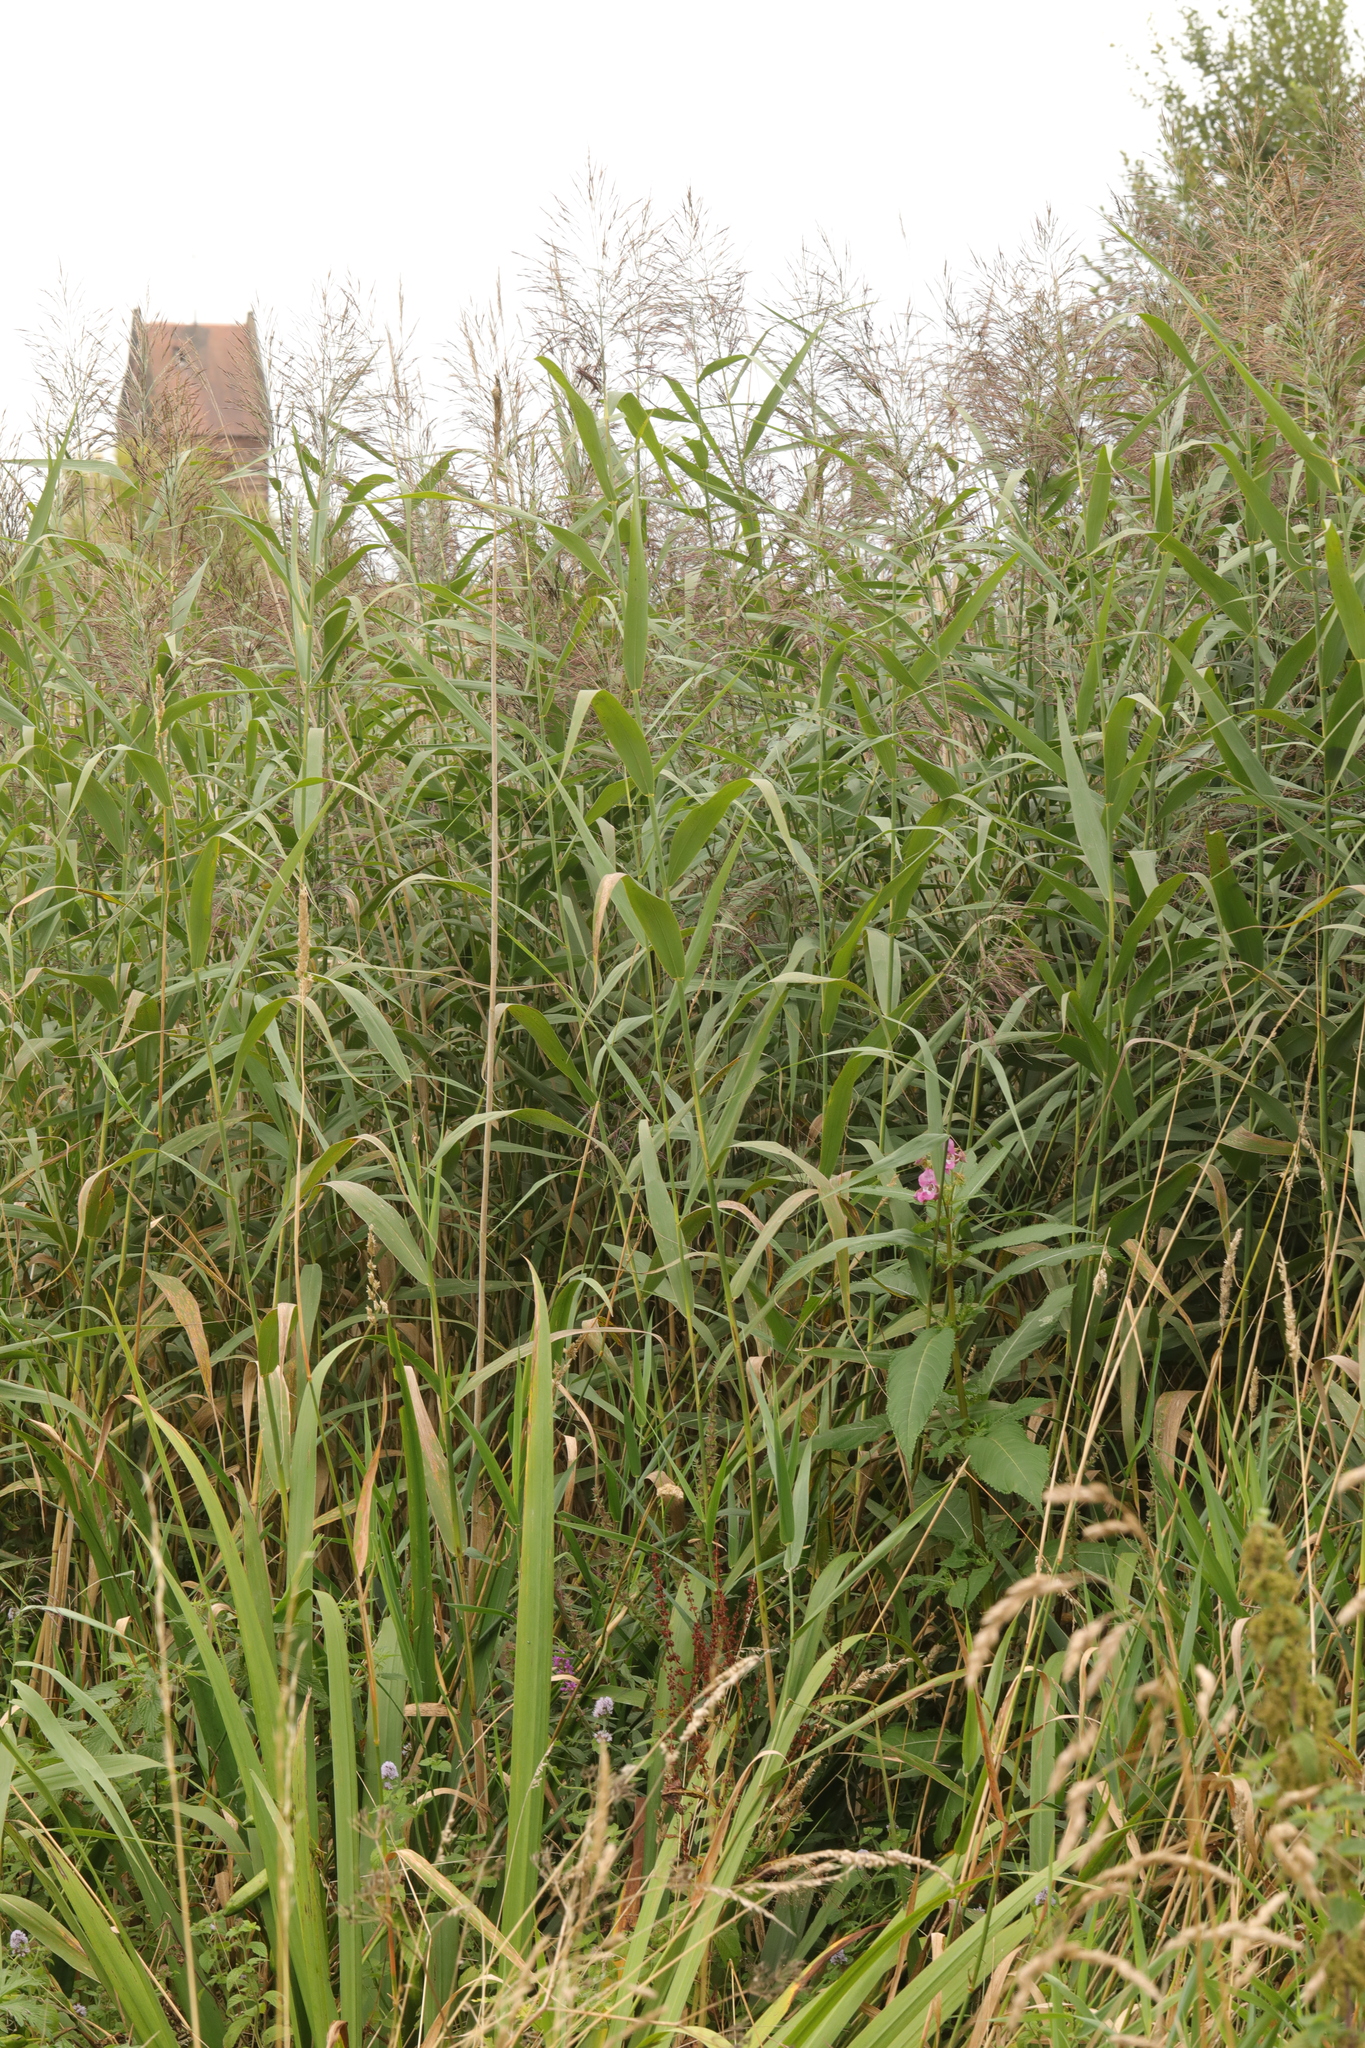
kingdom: Plantae
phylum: Tracheophyta
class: Liliopsida
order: Poales
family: Poaceae
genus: Phragmites
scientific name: Phragmites australis
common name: Common reed
